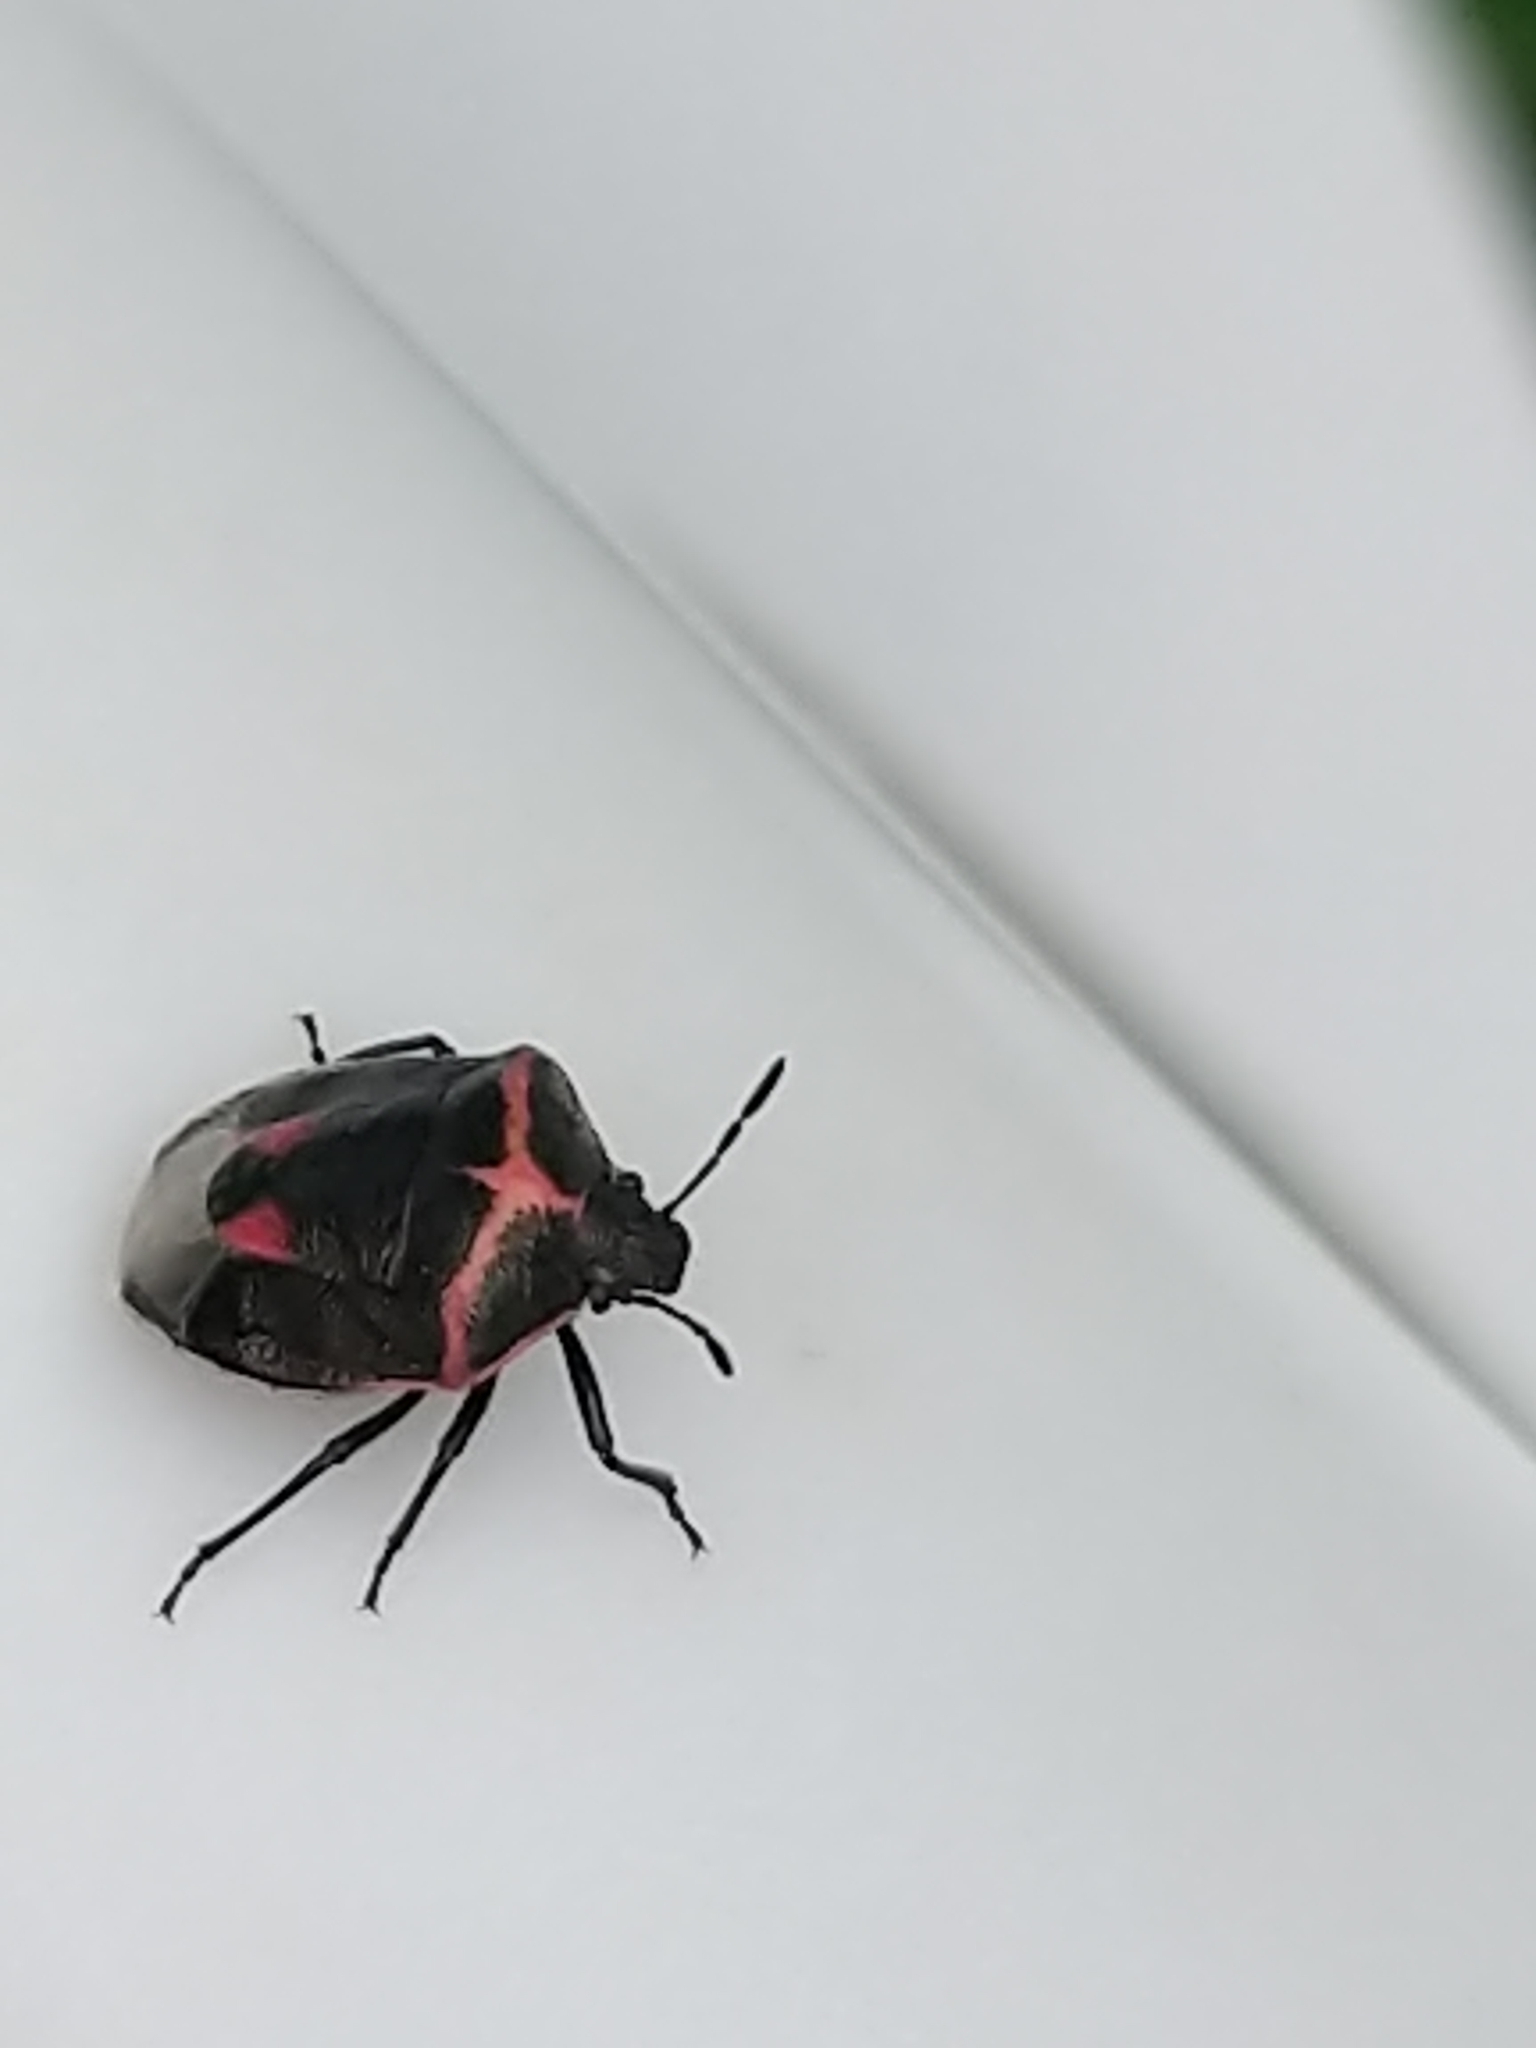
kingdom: Animalia
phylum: Arthropoda
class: Insecta
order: Hemiptera
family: Pentatomidae
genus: Cosmopepla
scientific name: Cosmopepla lintneriana
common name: Twice-stabbed stink bug
